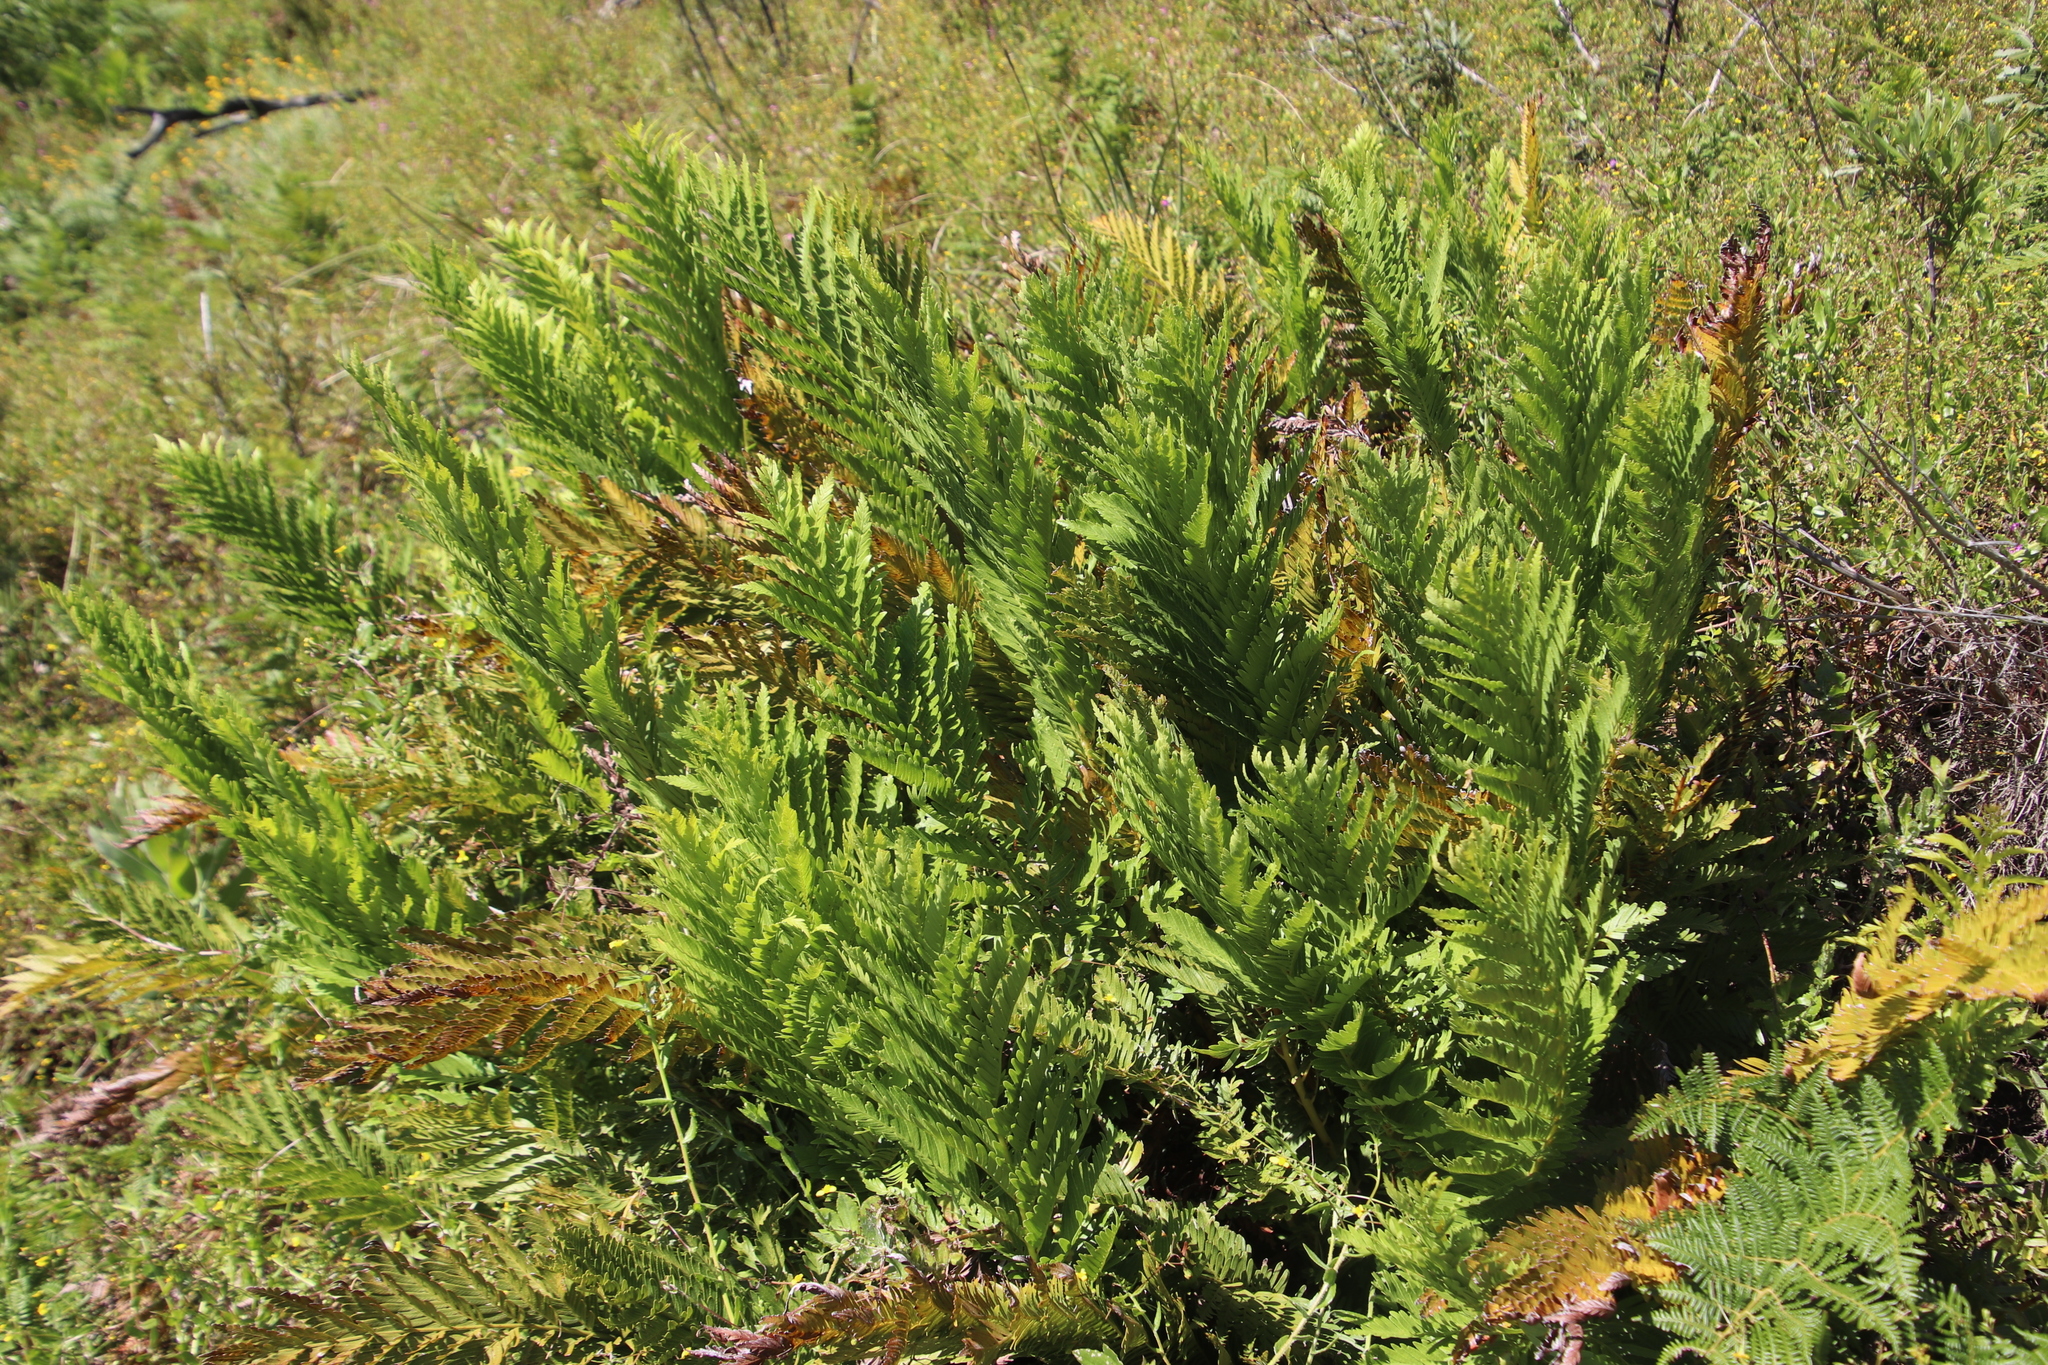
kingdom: Plantae
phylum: Tracheophyta
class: Polypodiopsida
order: Osmundales
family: Osmundaceae
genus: Todea
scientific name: Todea barbara
